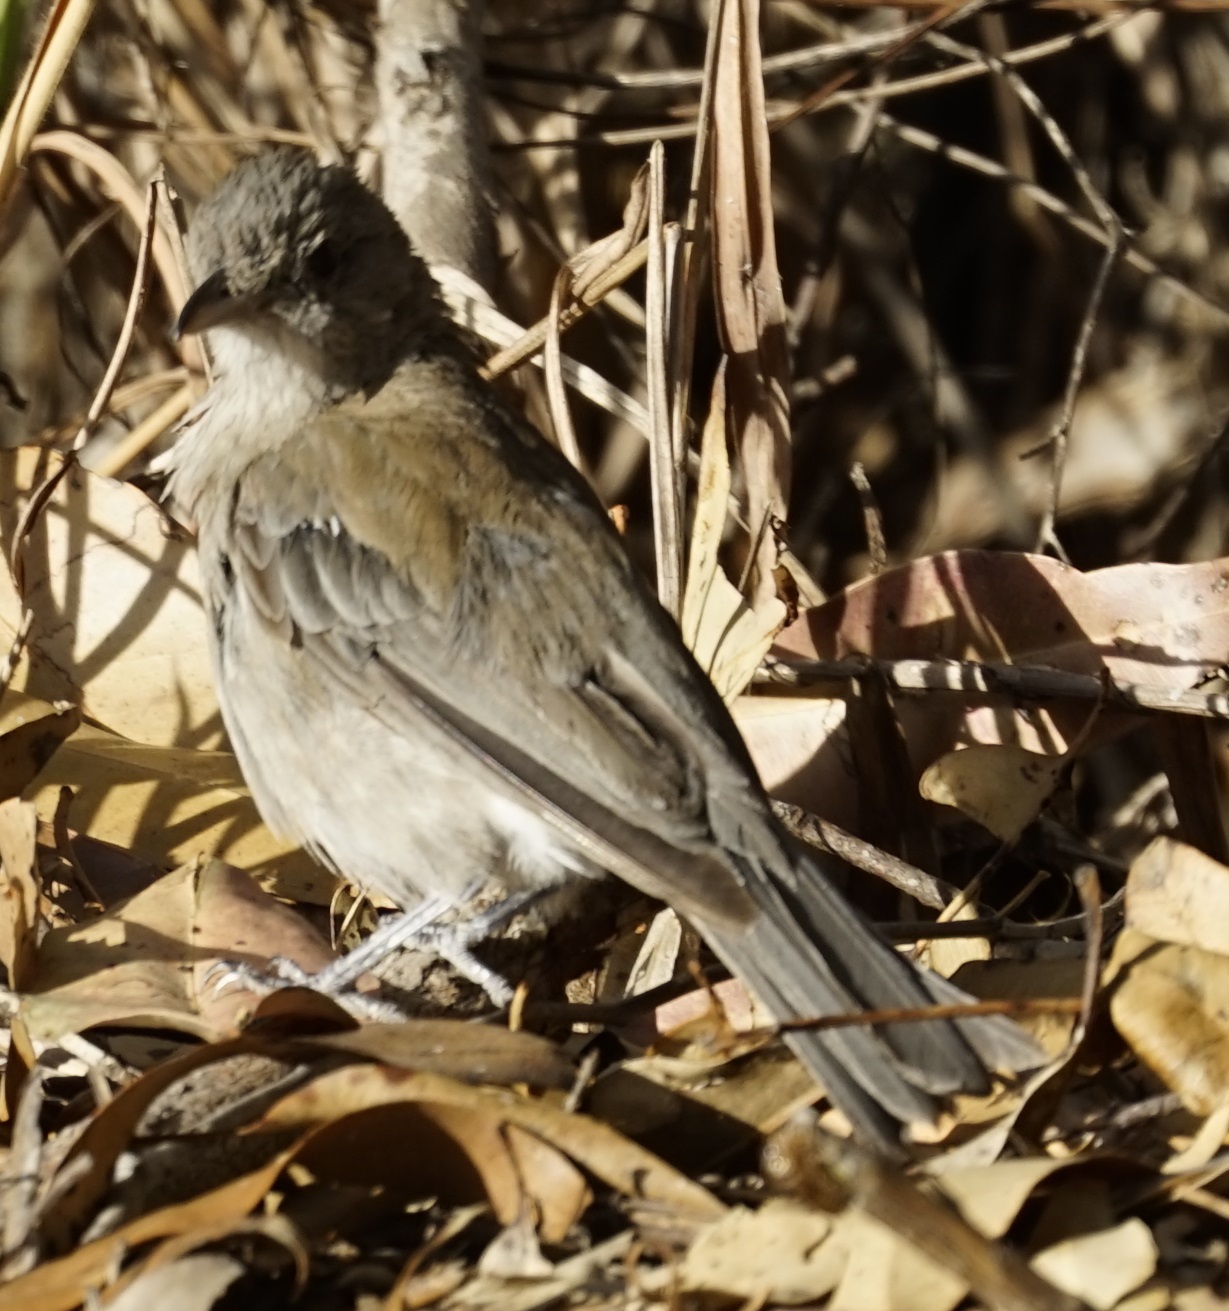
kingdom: Animalia
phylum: Chordata
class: Aves
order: Passeriformes
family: Pachycephalidae
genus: Colluricincla
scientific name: Colluricincla harmonica
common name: Grey shrikethrush
